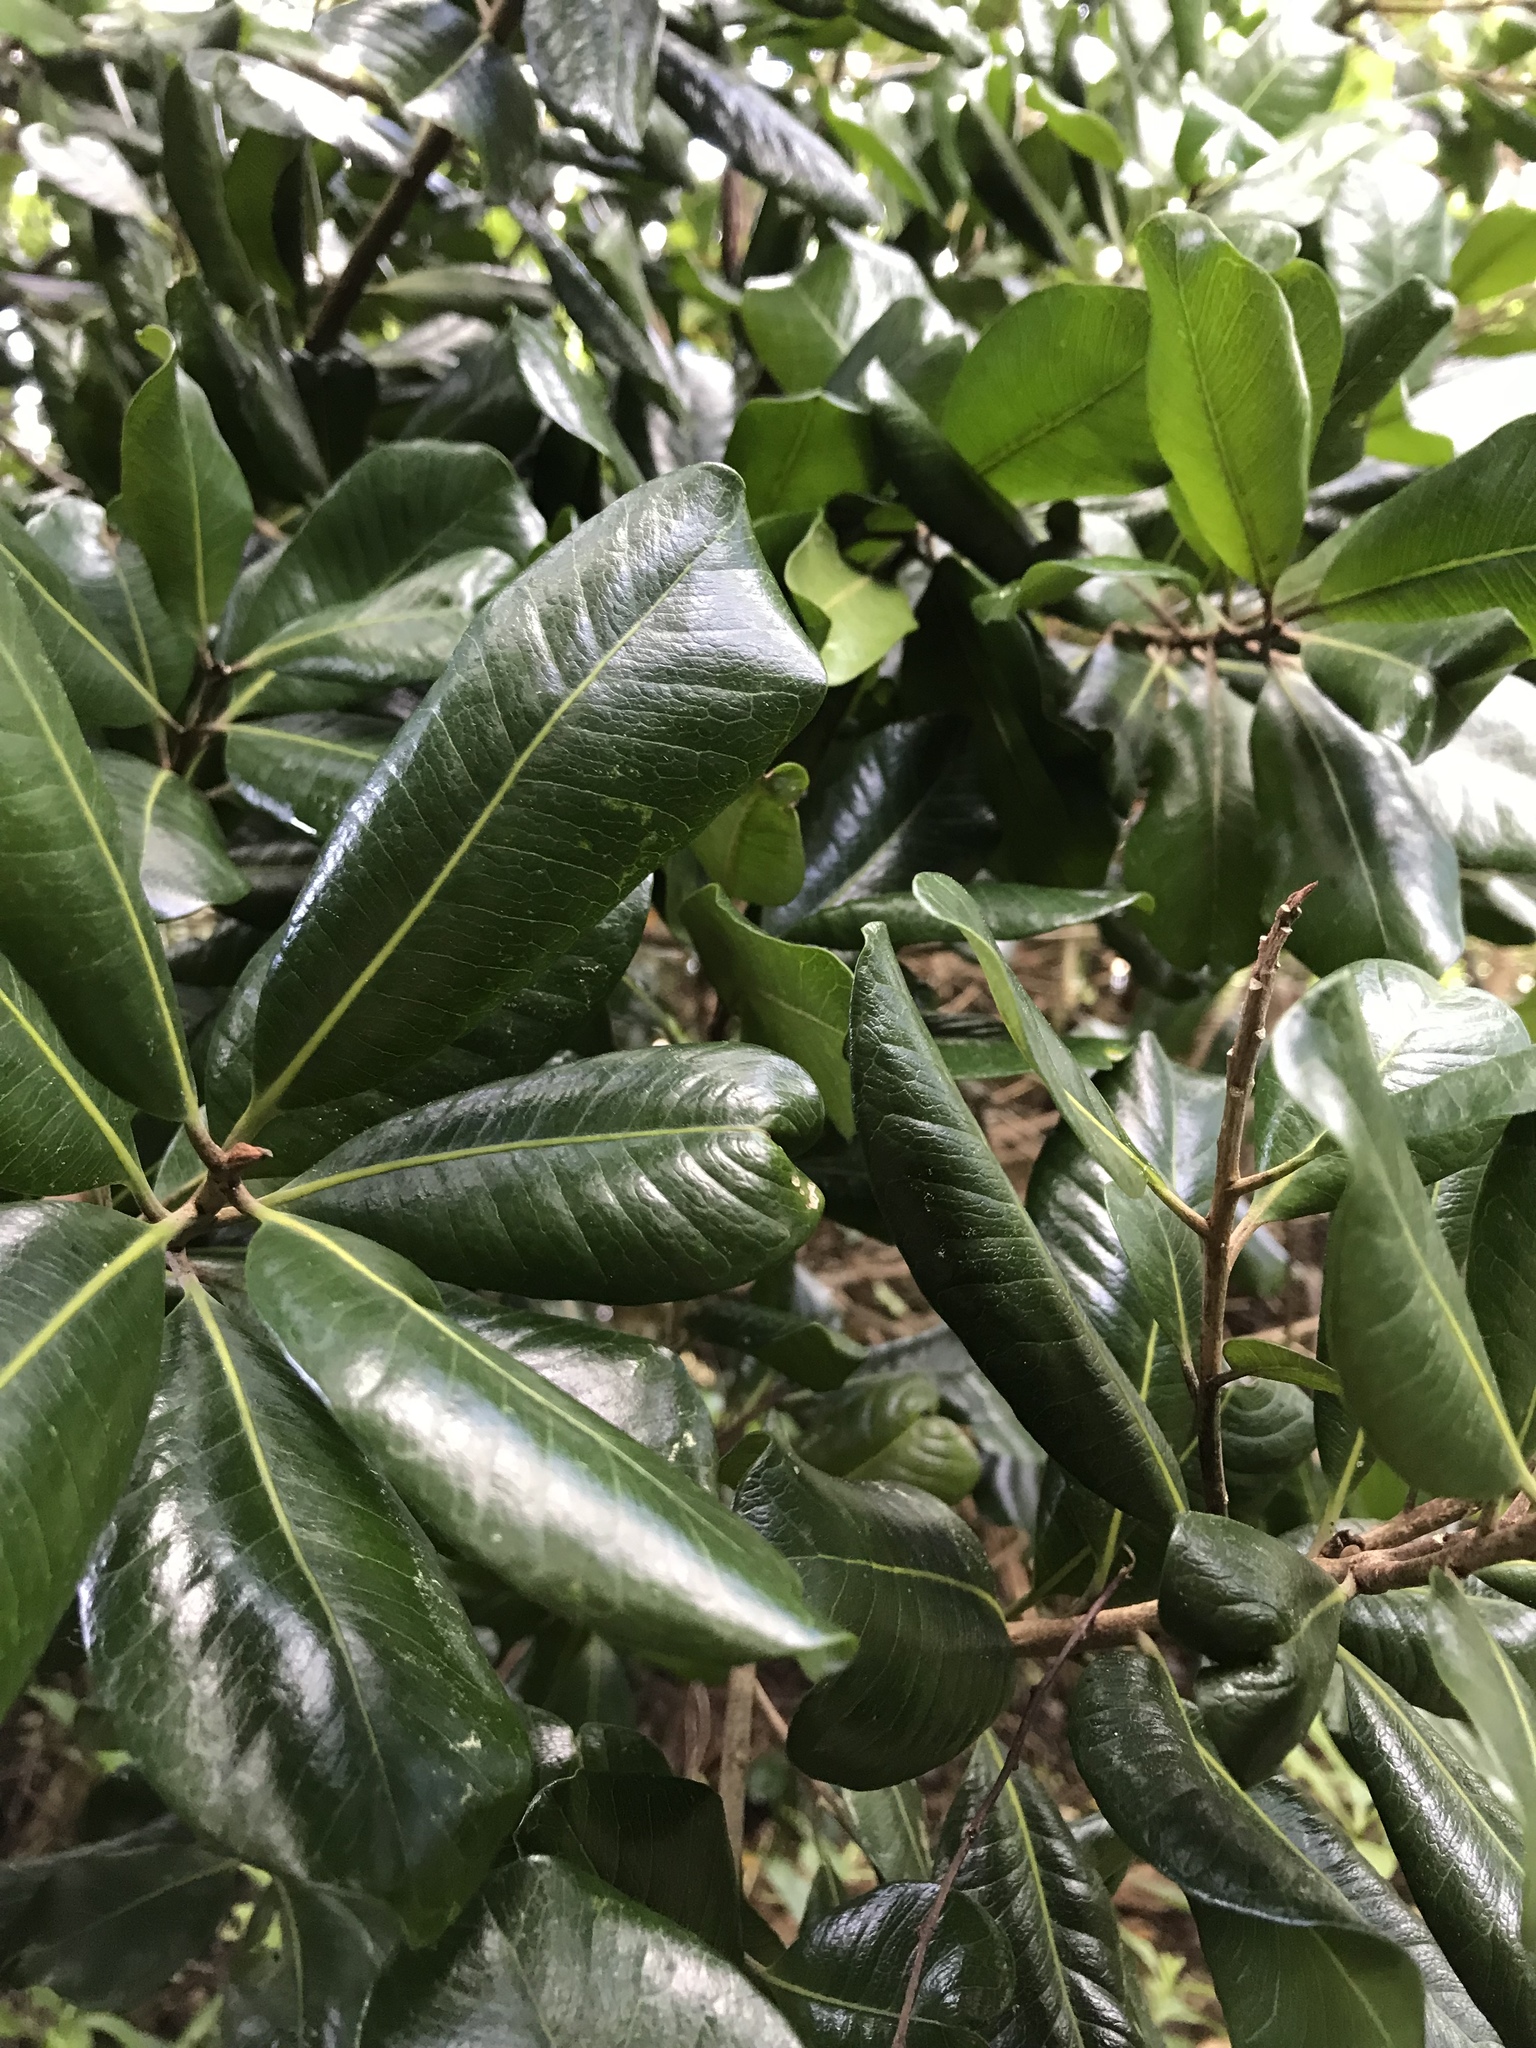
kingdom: Plantae
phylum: Tracheophyta
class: Magnoliopsida
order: Ericales
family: Sapotaceae
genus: Planchonella
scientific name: Planchonella costata
